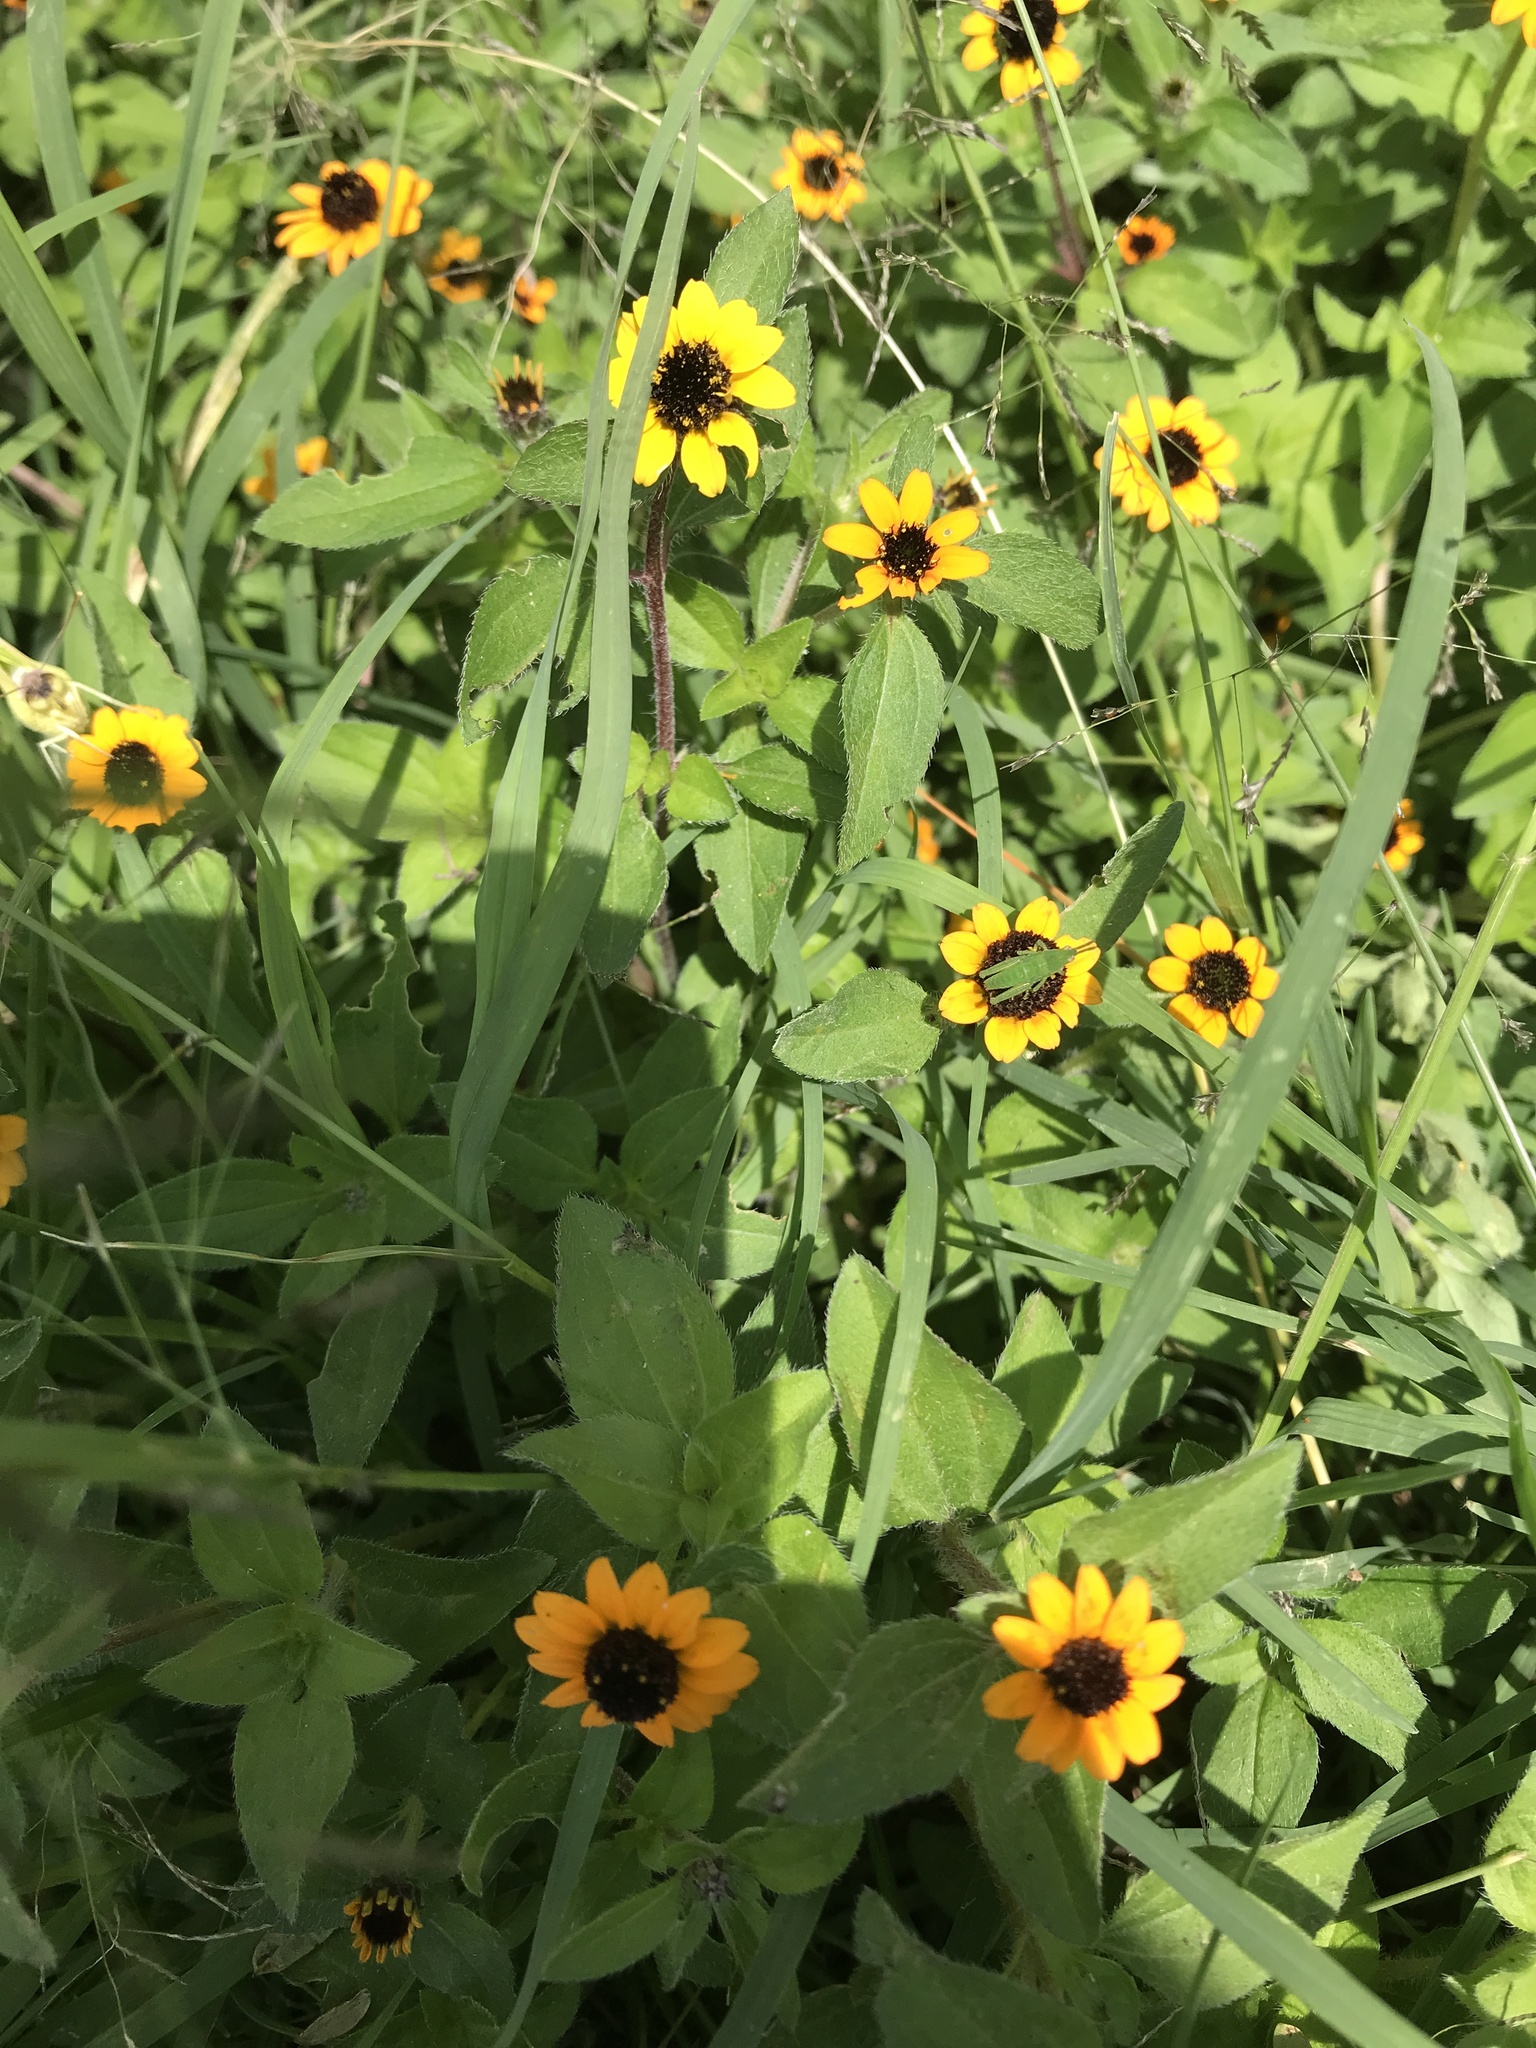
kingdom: Plantae
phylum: Tracheophyta
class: Magnoliopsida
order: Asterales
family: Asteraceae
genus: Sanvitalia
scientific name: Sanvitalia procumbens
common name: Mexican creeping zinnia
